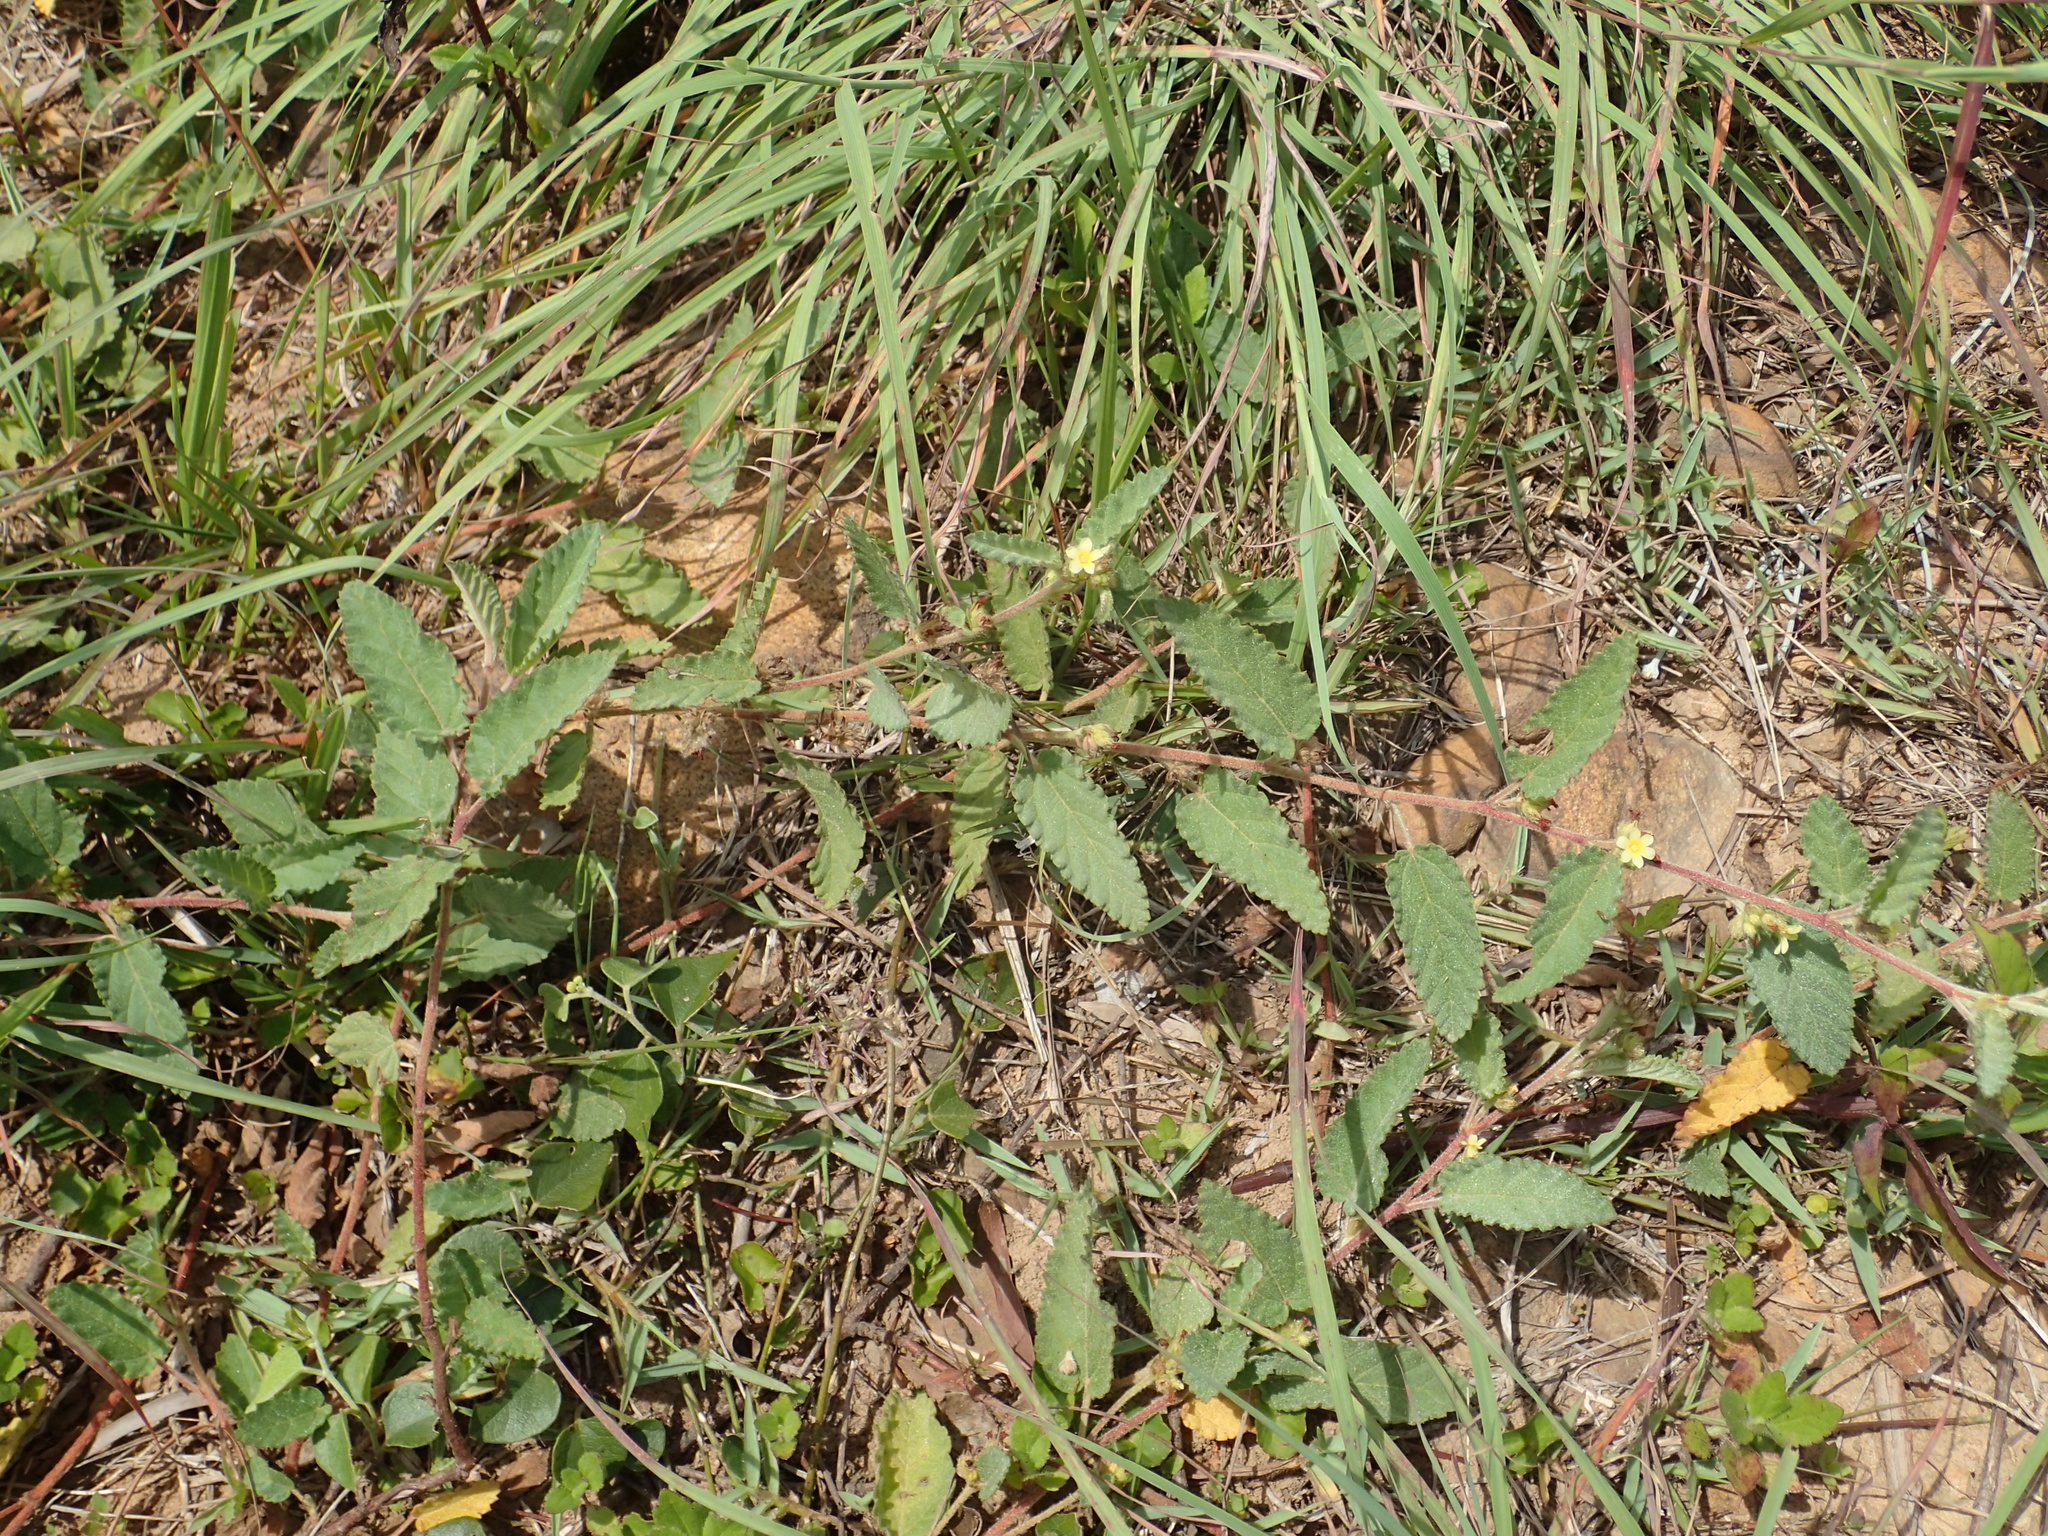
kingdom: Plantae
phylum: Tracheophyta
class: Magnoliopsida
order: Malvales
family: Malvaceae
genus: Waltheria
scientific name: Waltheria indica
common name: Leather-coat
